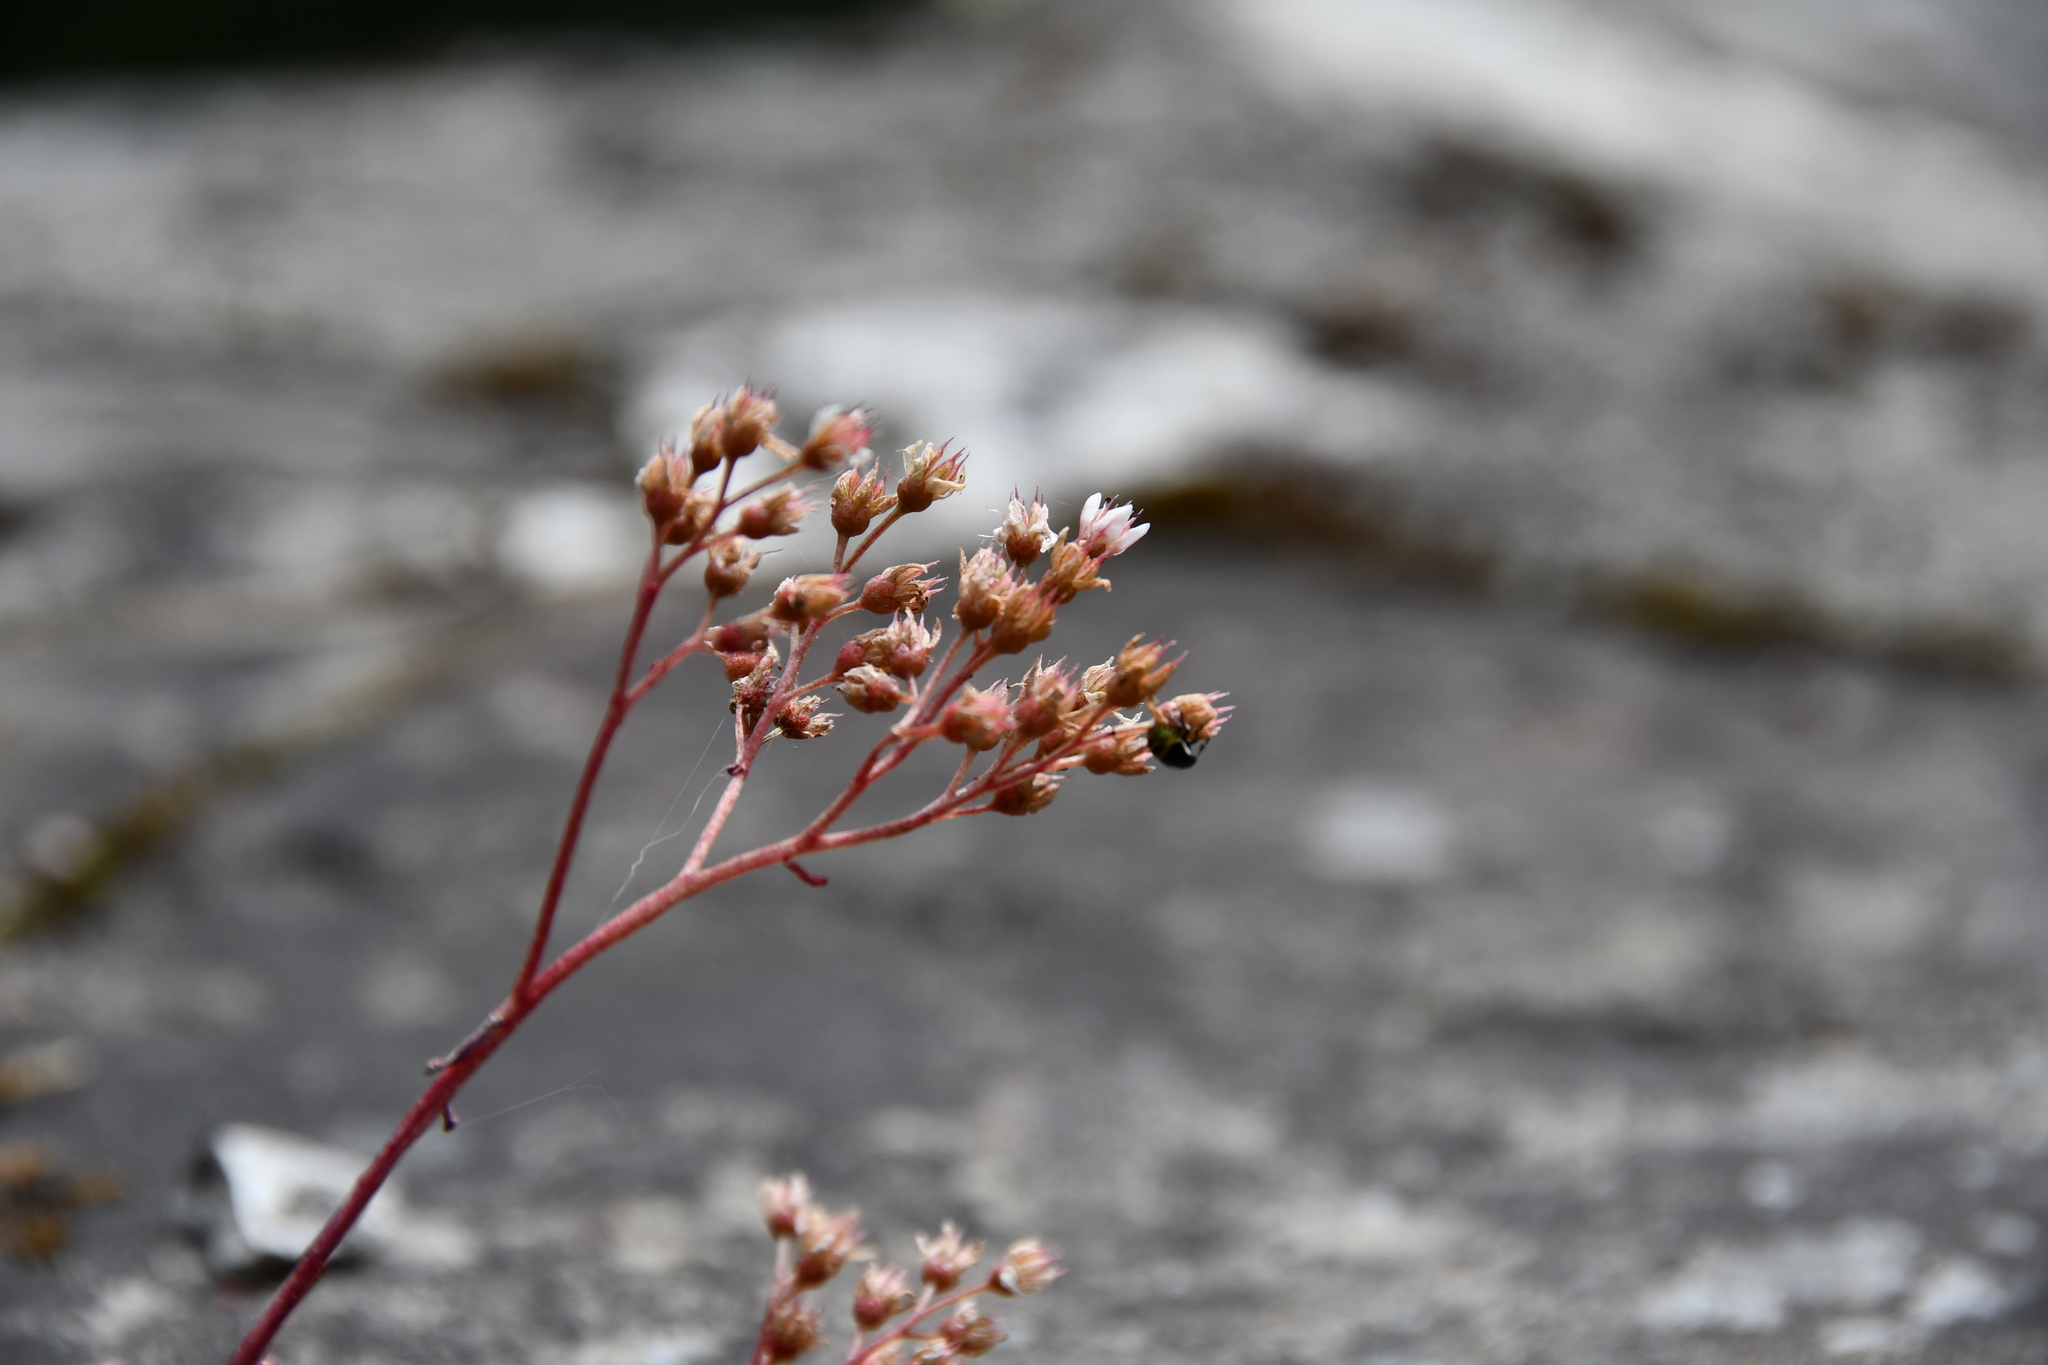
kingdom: Plantae
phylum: Tracheophyta
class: Magnoliopsida
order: Saxifragales
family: Crassulaceae
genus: Sedum
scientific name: Sedum album
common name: White stonecrop
